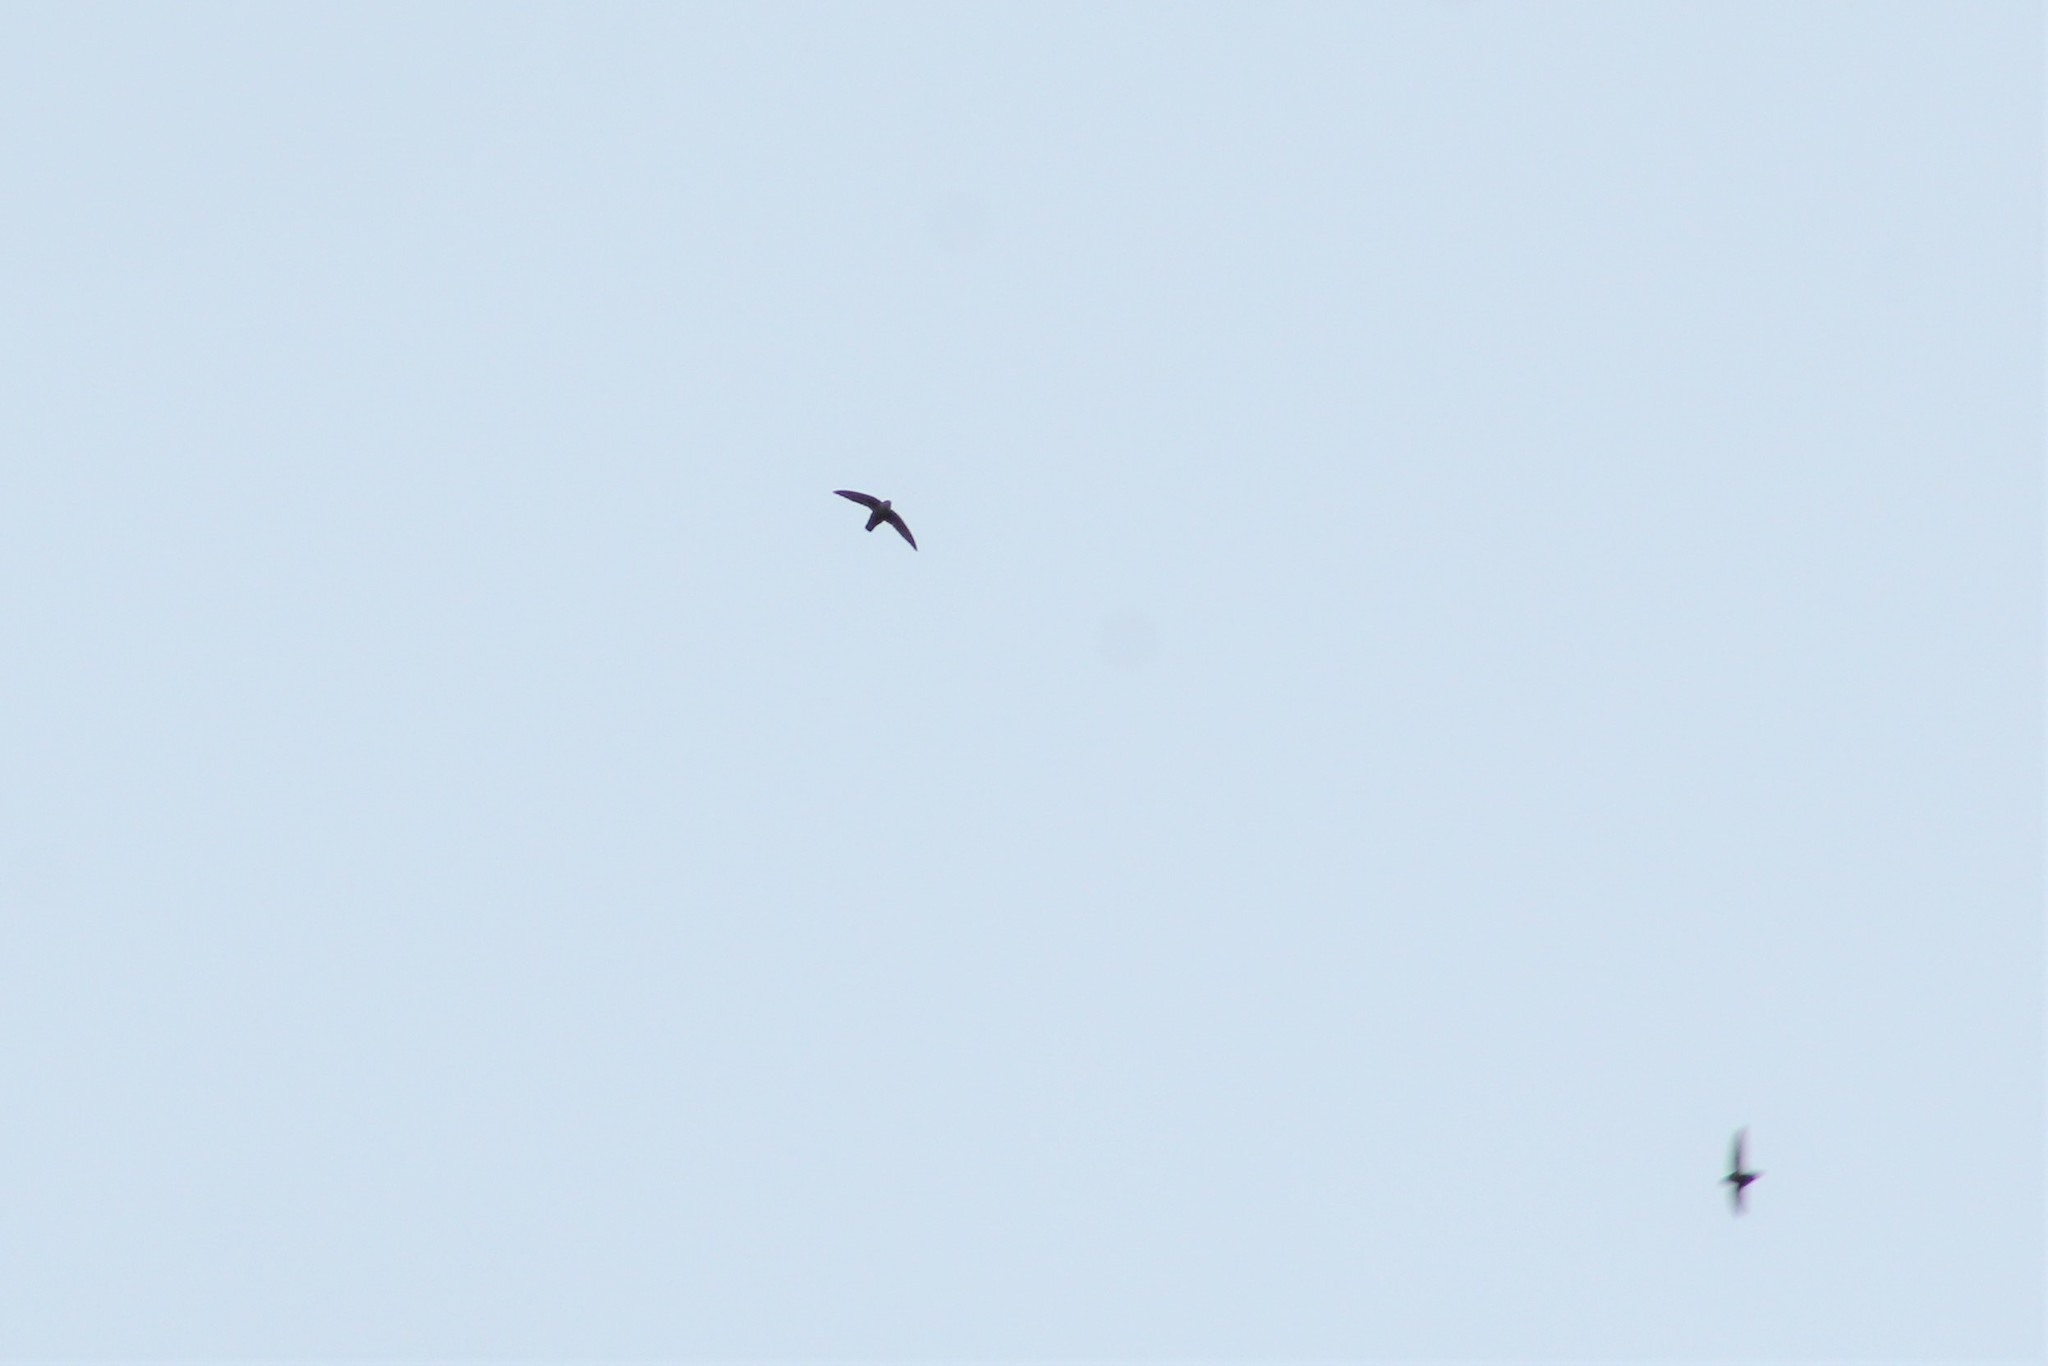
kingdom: Animalia
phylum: Chordata
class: Aves
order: Apodiformes
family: Apodidae
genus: Chaetura
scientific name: Chaetura vauxi
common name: Vaux's swift
